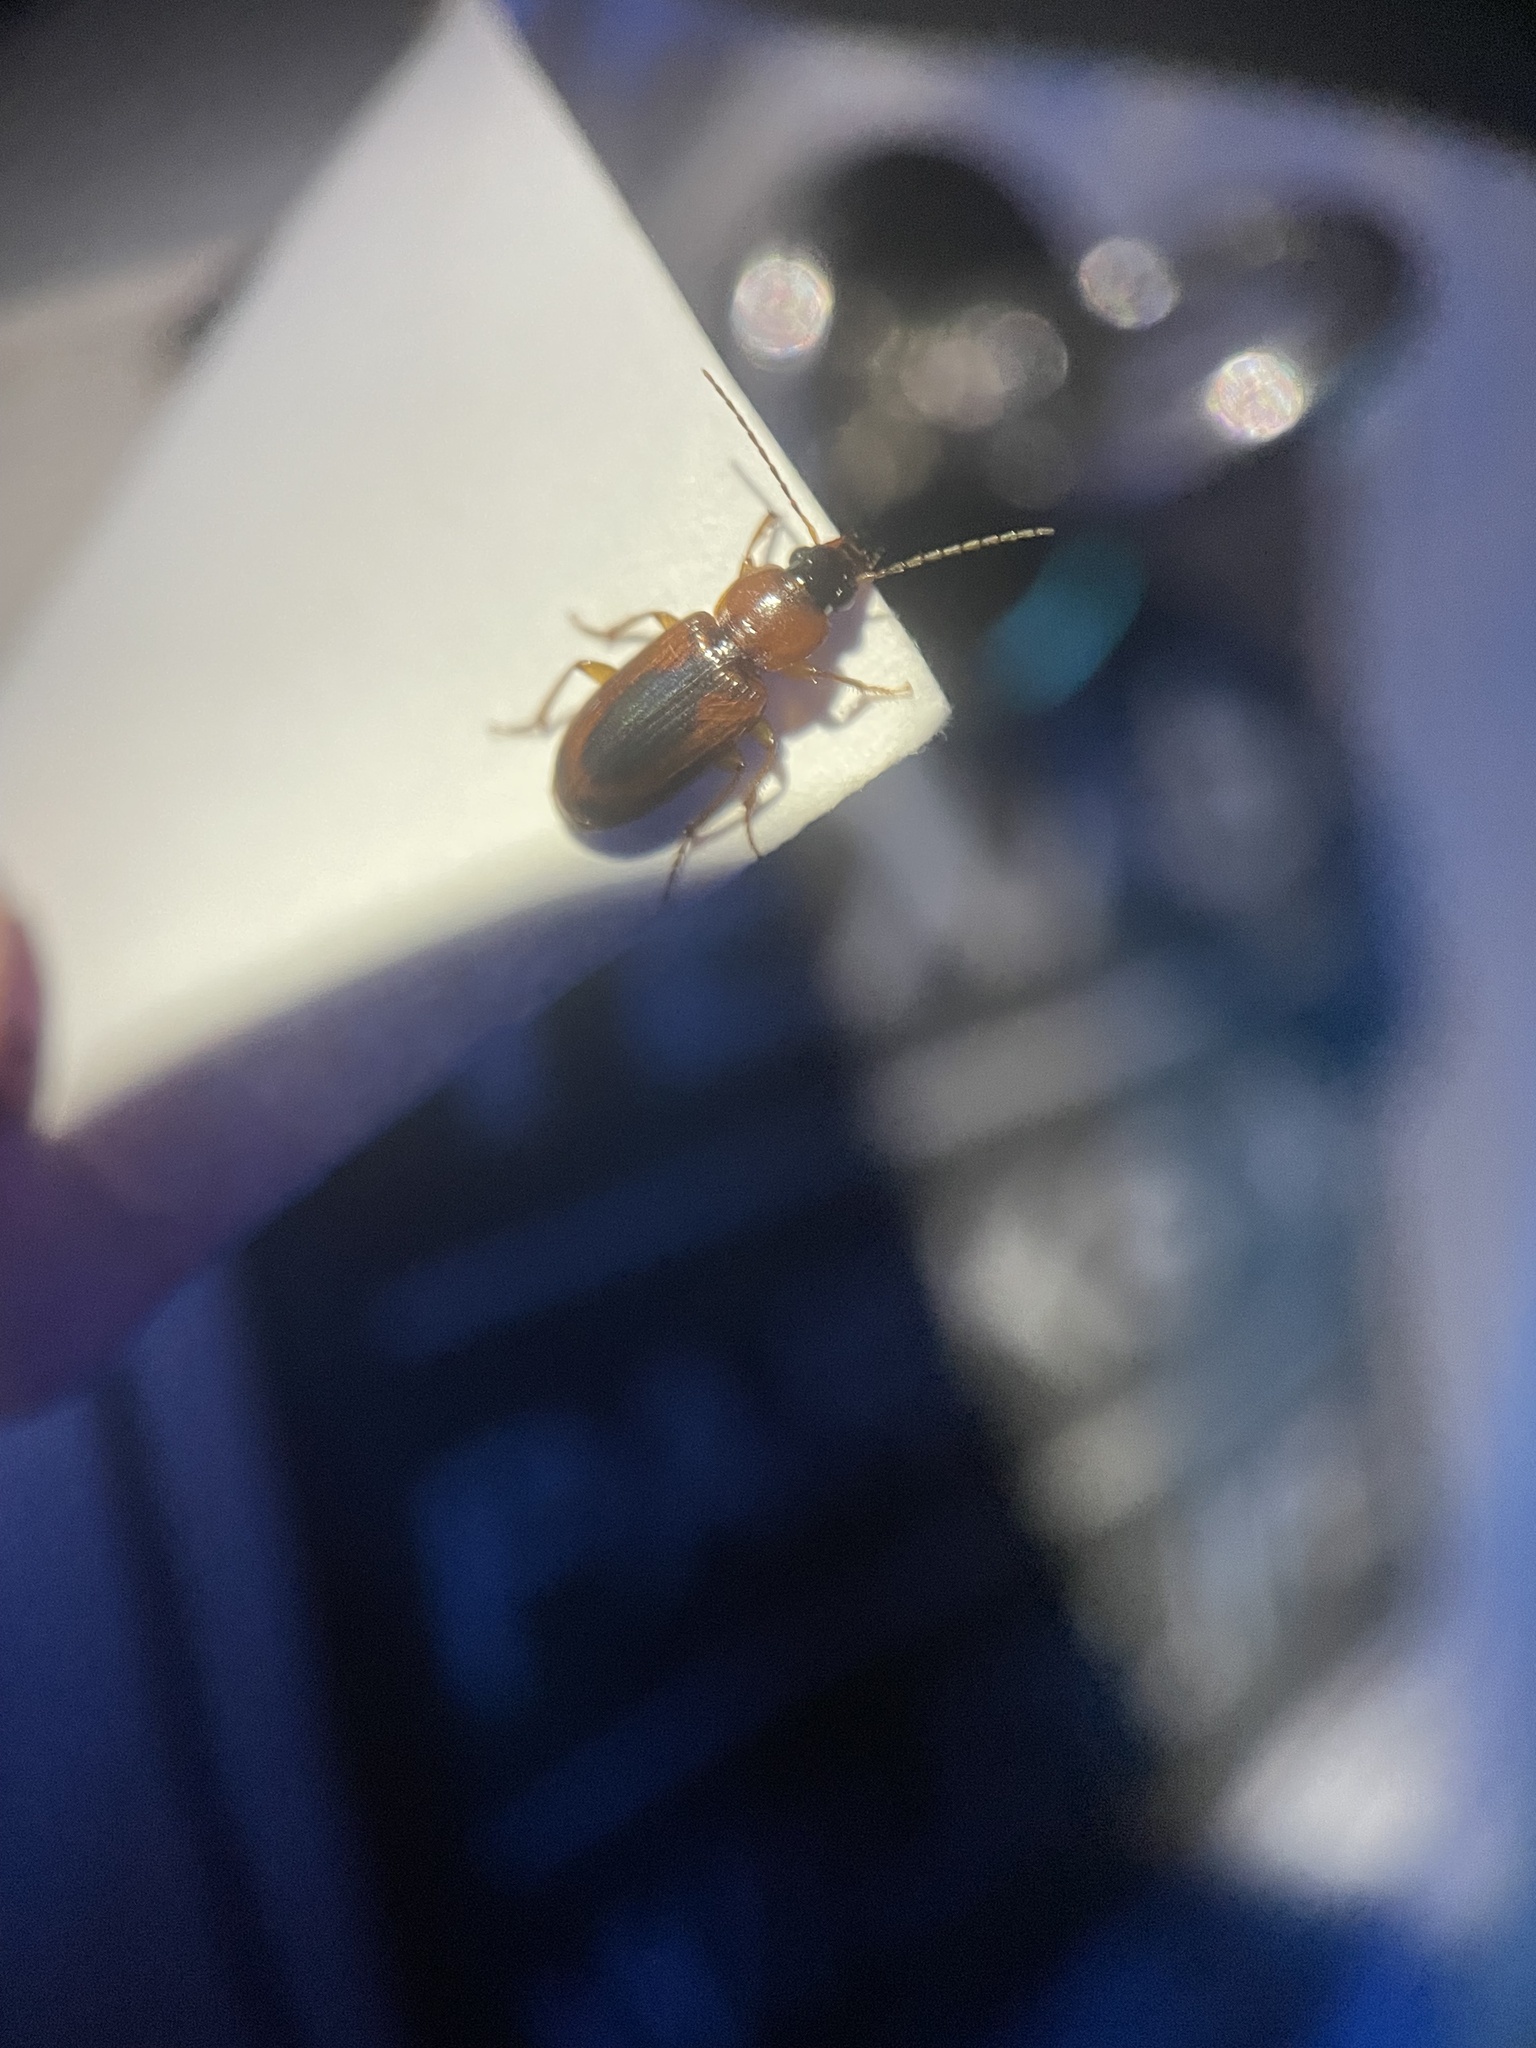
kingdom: Animalia
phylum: Arthropoda
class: Insecta
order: Coleoptera
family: Carabidae
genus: Stenolophus
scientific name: Stenolophus dissimilis
